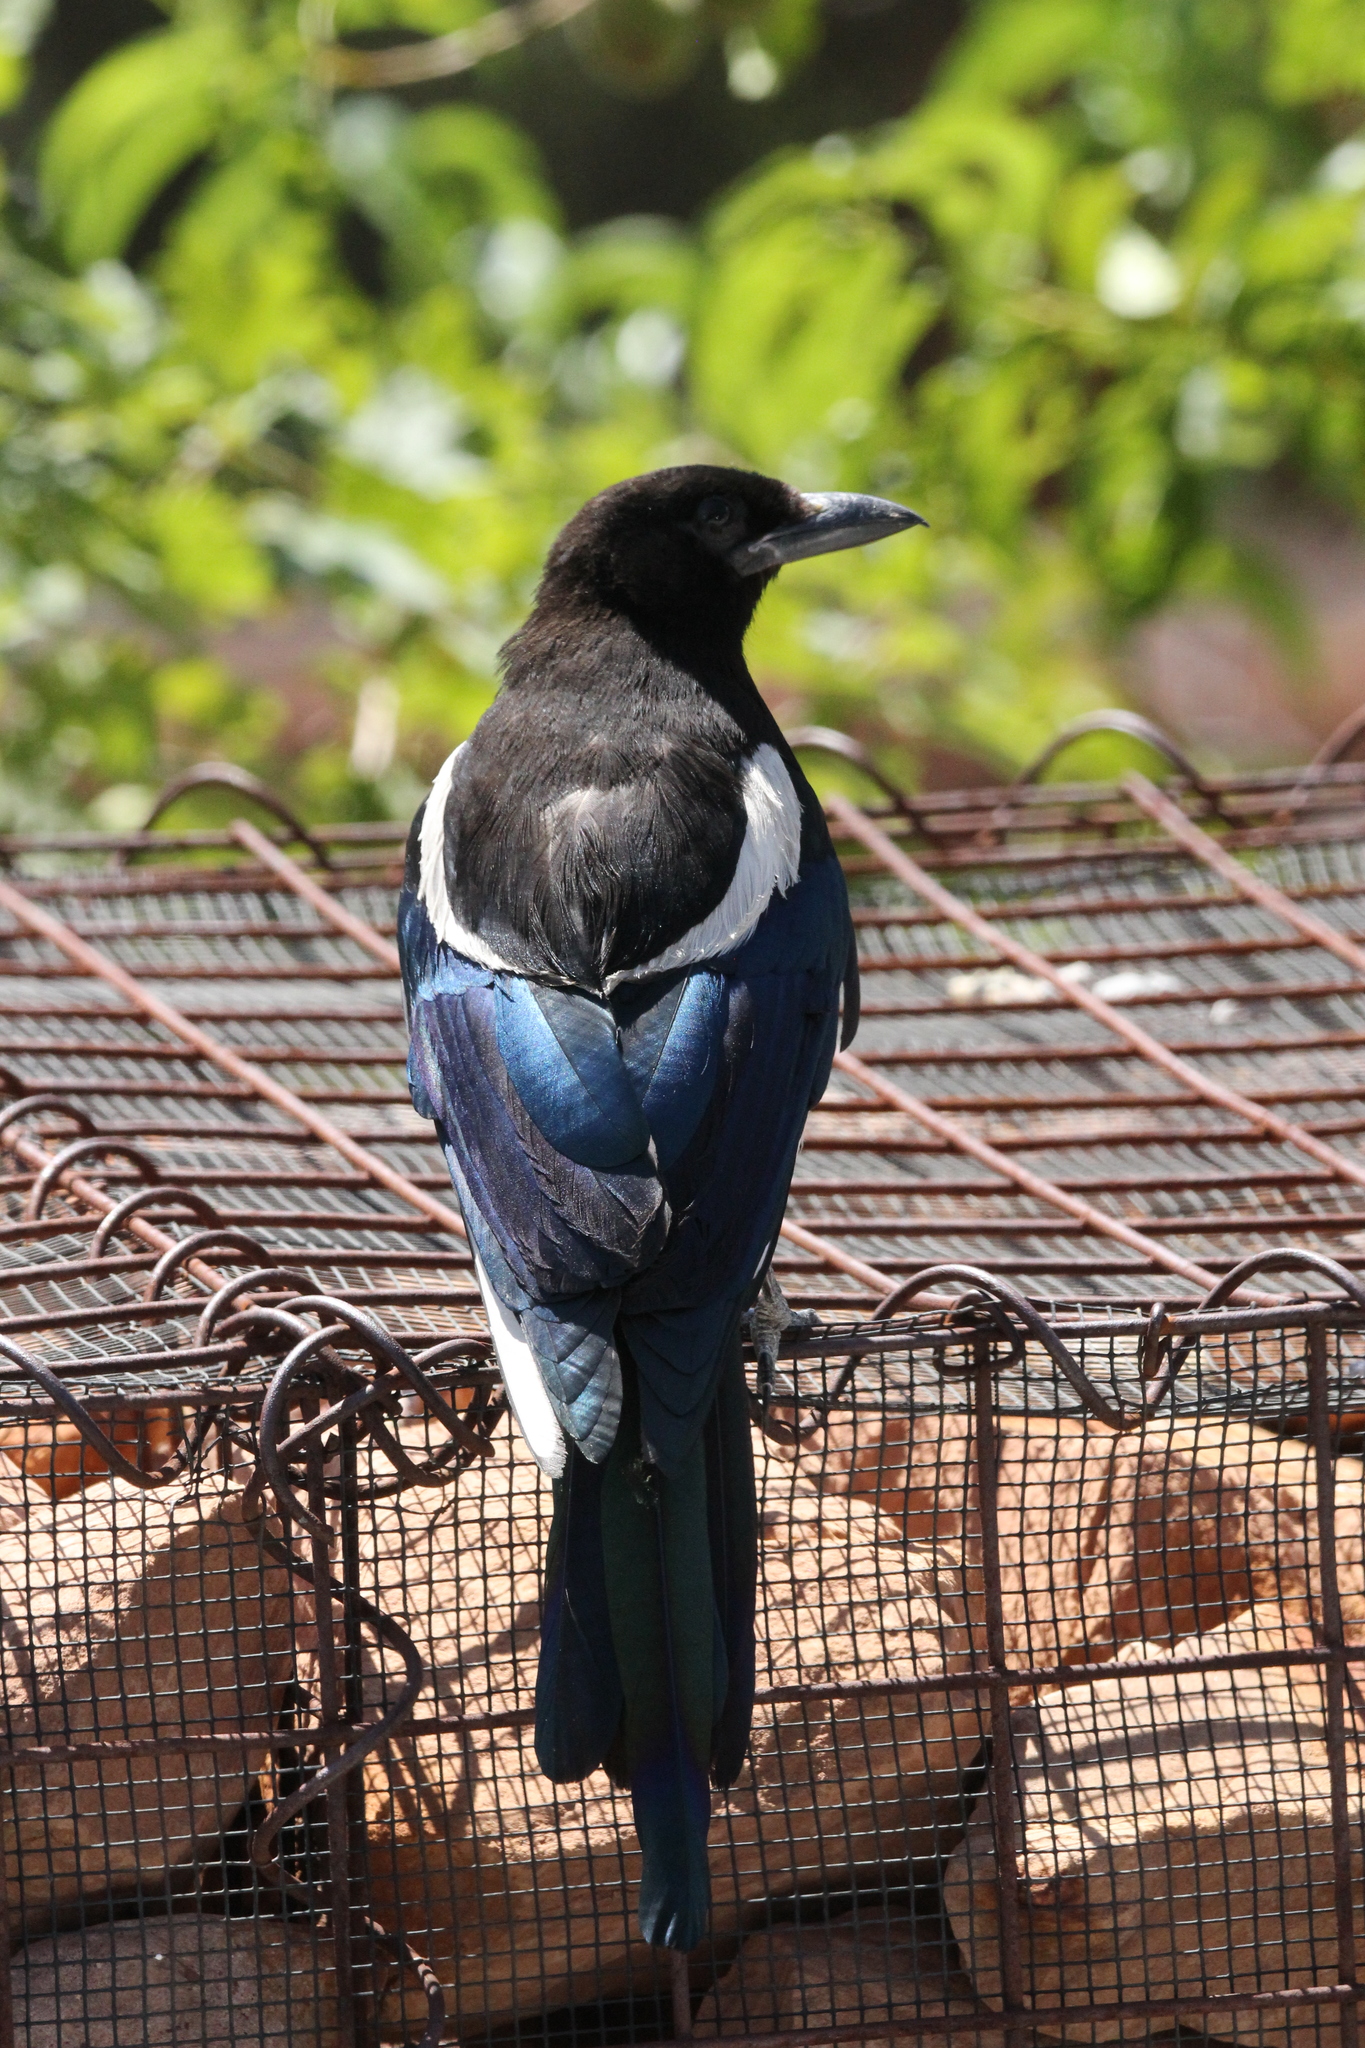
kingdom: Animalia
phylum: Chordata
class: Aves
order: Passeriformes
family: Corvidae
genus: Pica
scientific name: Pica hudsonia
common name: Black-billed magpie
